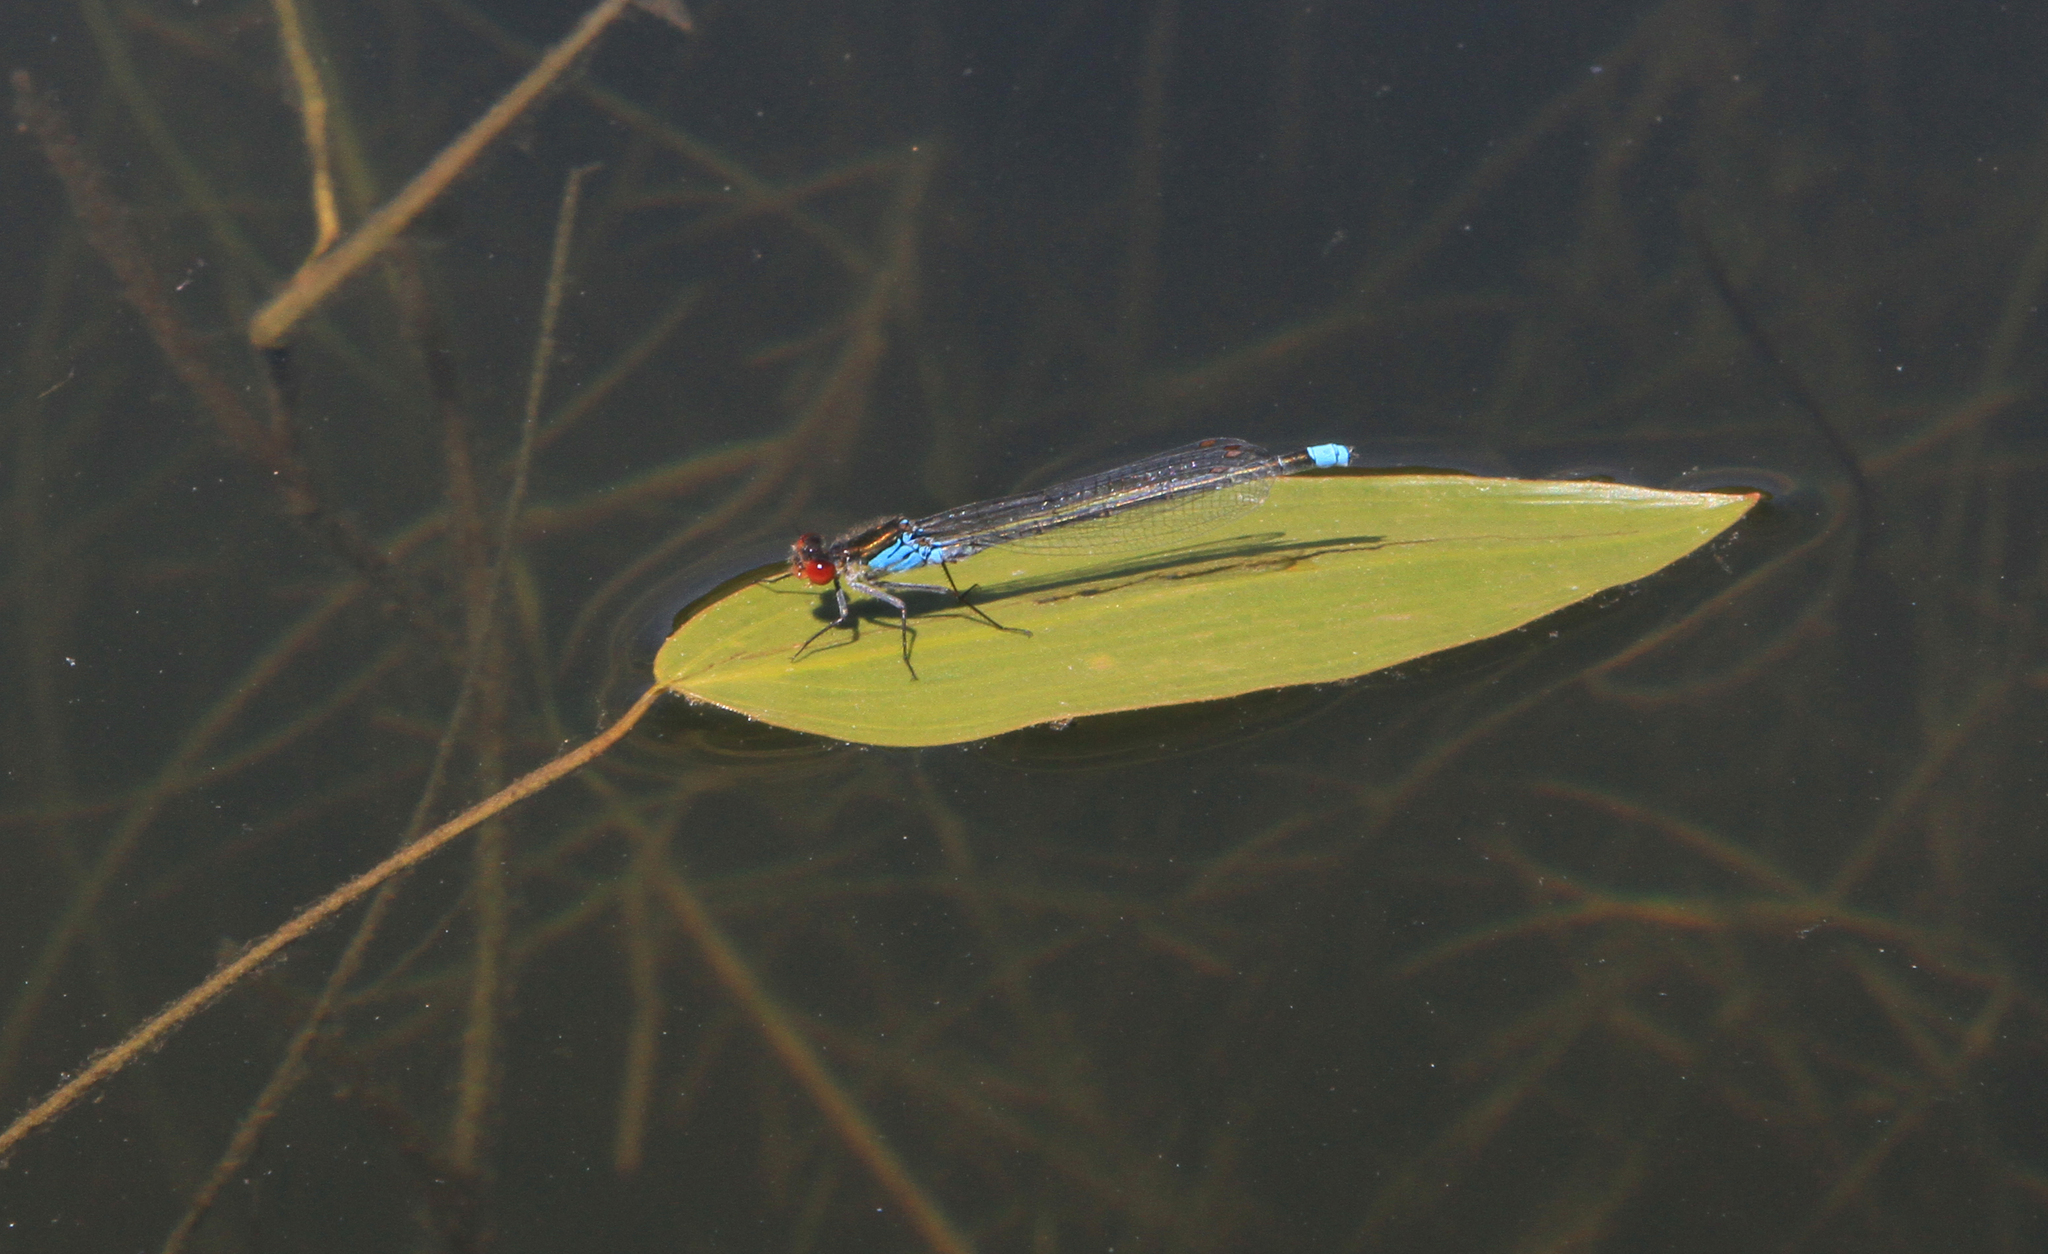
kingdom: Animalia
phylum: Arthropoda
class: Insecta
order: Odonata
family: Coenagrionidae
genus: Erythromma
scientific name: Erythromma najas
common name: Red-eyed damselfly
